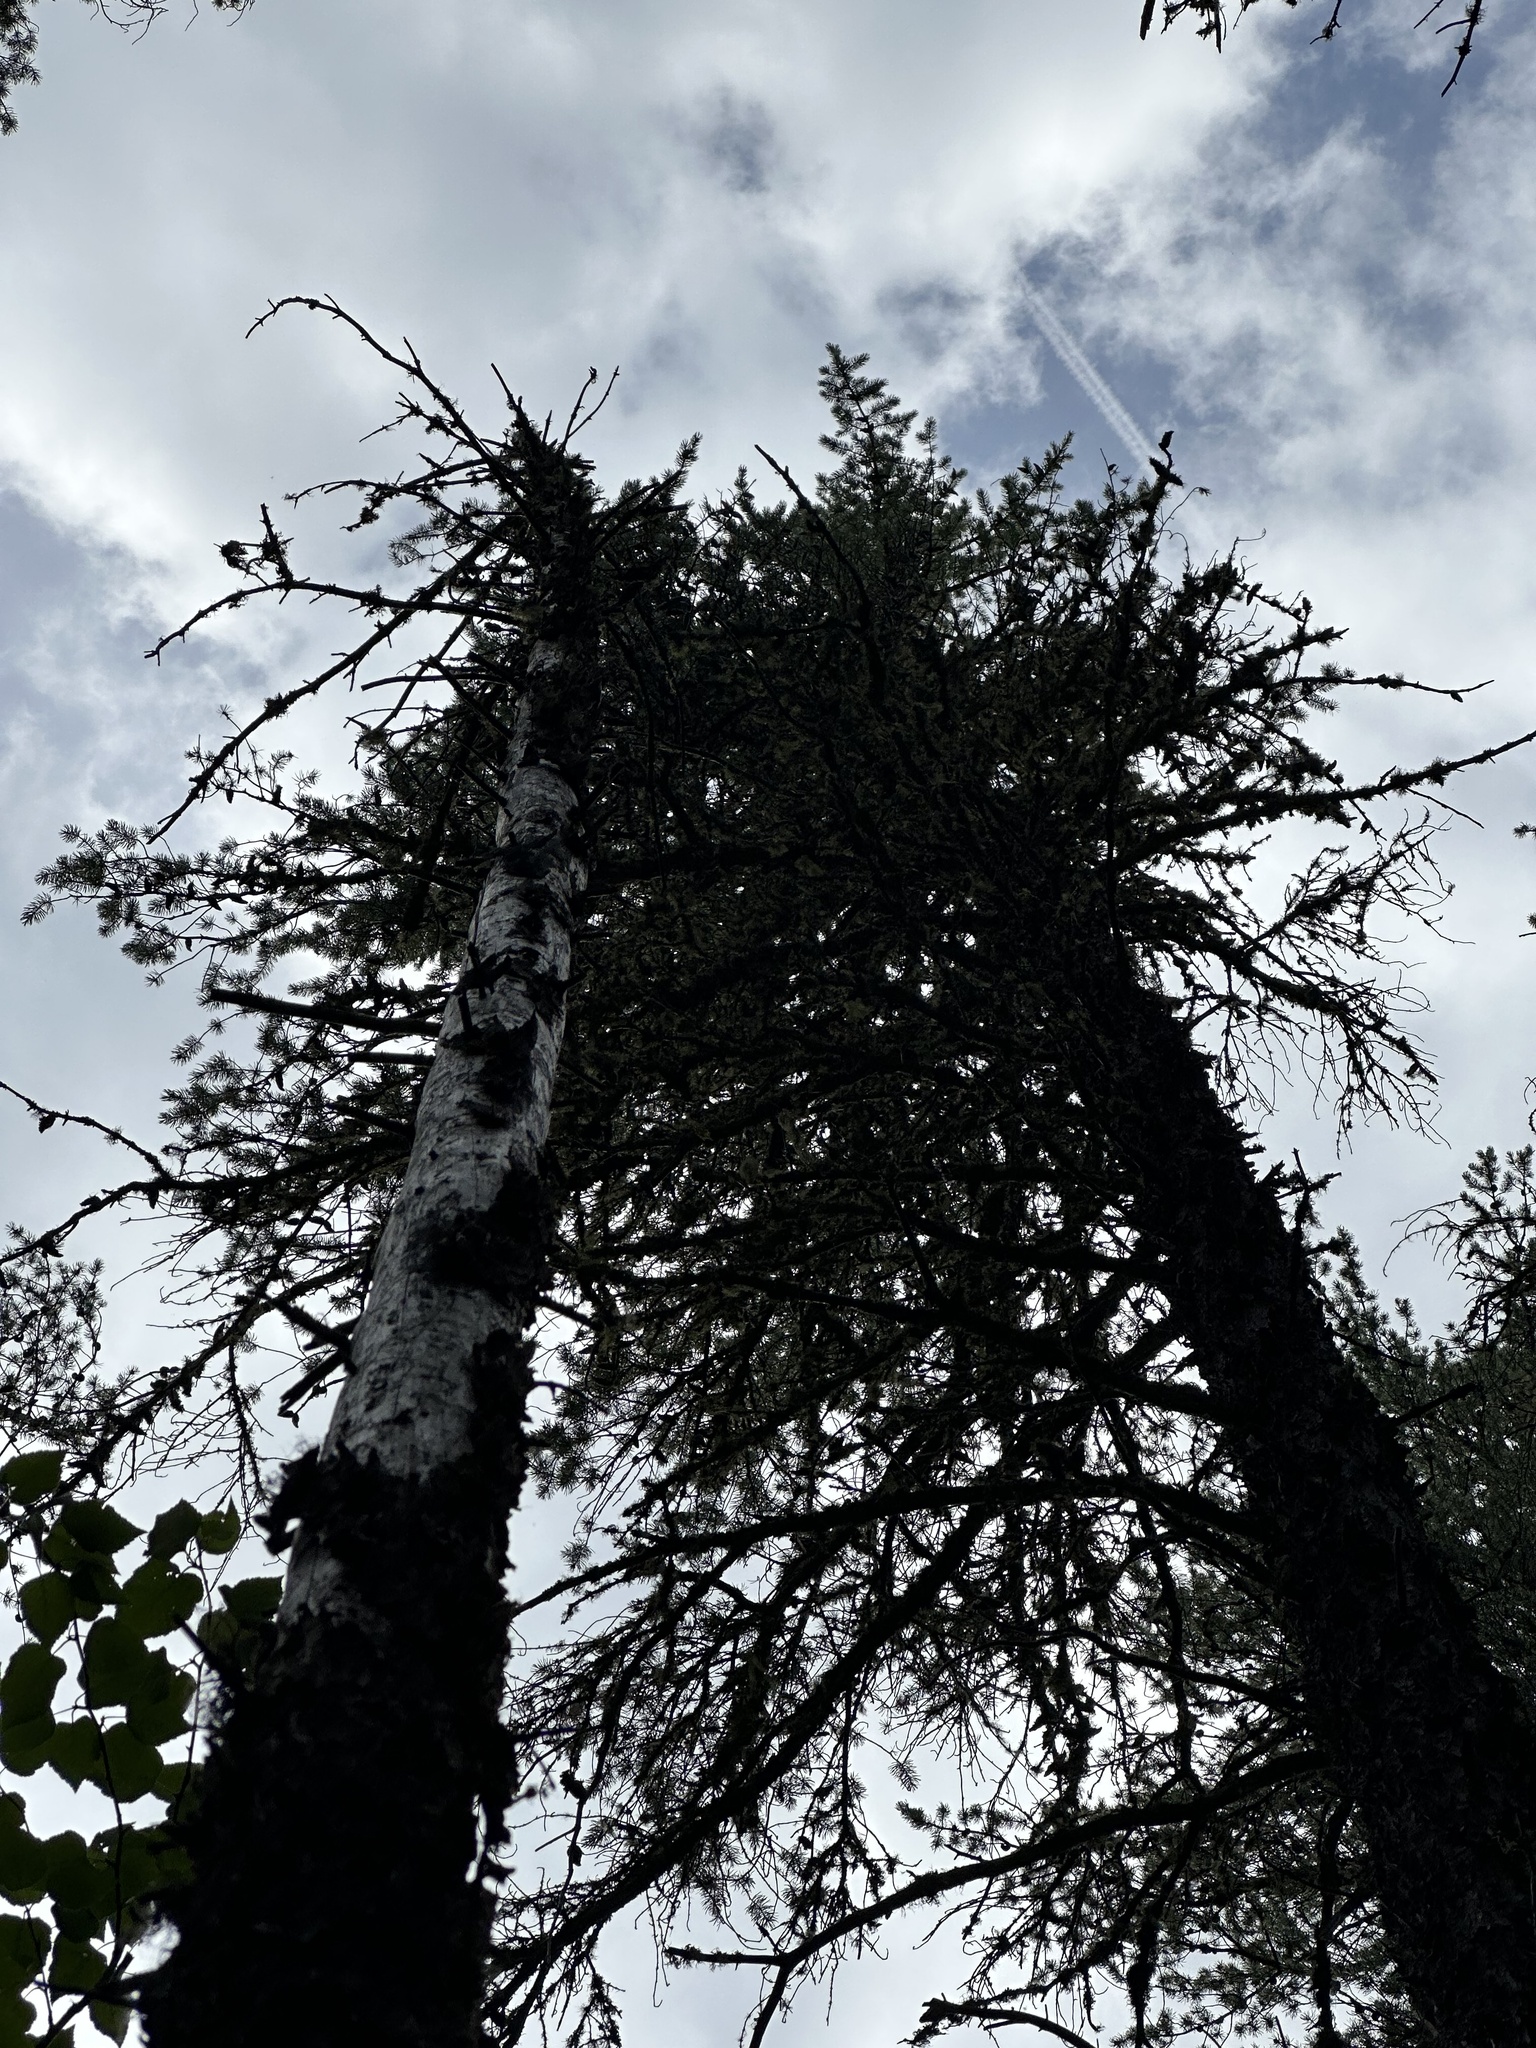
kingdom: Plantae
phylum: Tracheophyta
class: Pinopsida
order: Pinales
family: Pinaceae
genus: Pinus
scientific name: Pinus banksiana
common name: Jack pine
